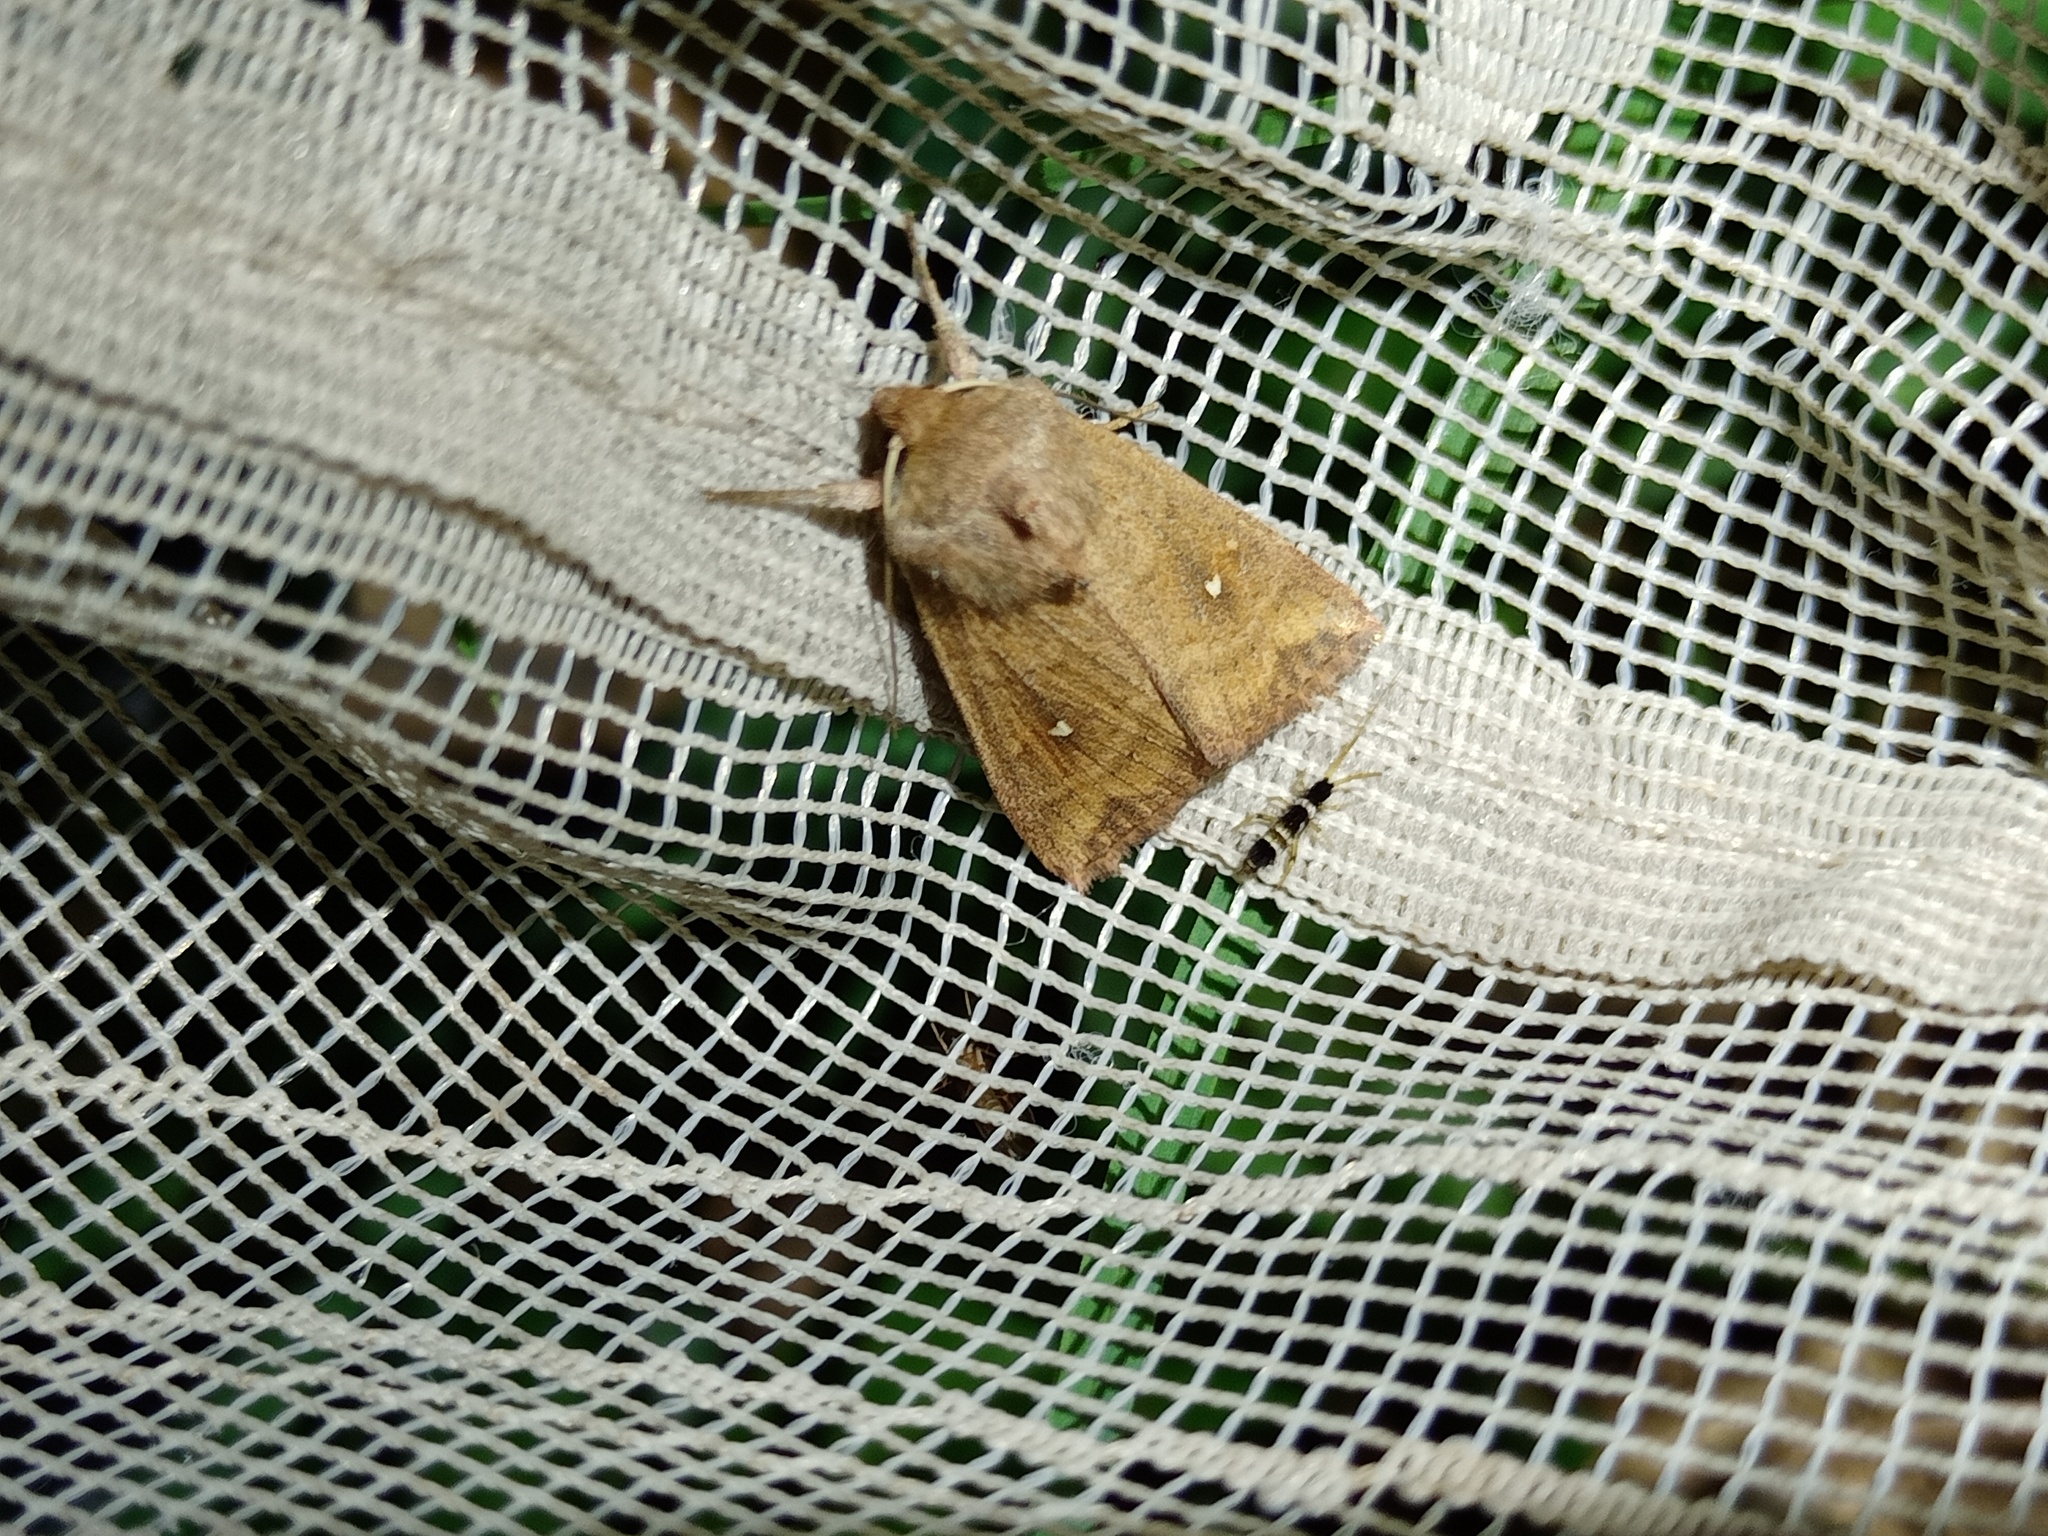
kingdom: Animalia
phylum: Arthropoda
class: Insecta
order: Lepidoptera
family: Noctuidae
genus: Mythimna
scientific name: Mythimna albipuncta
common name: White-point
